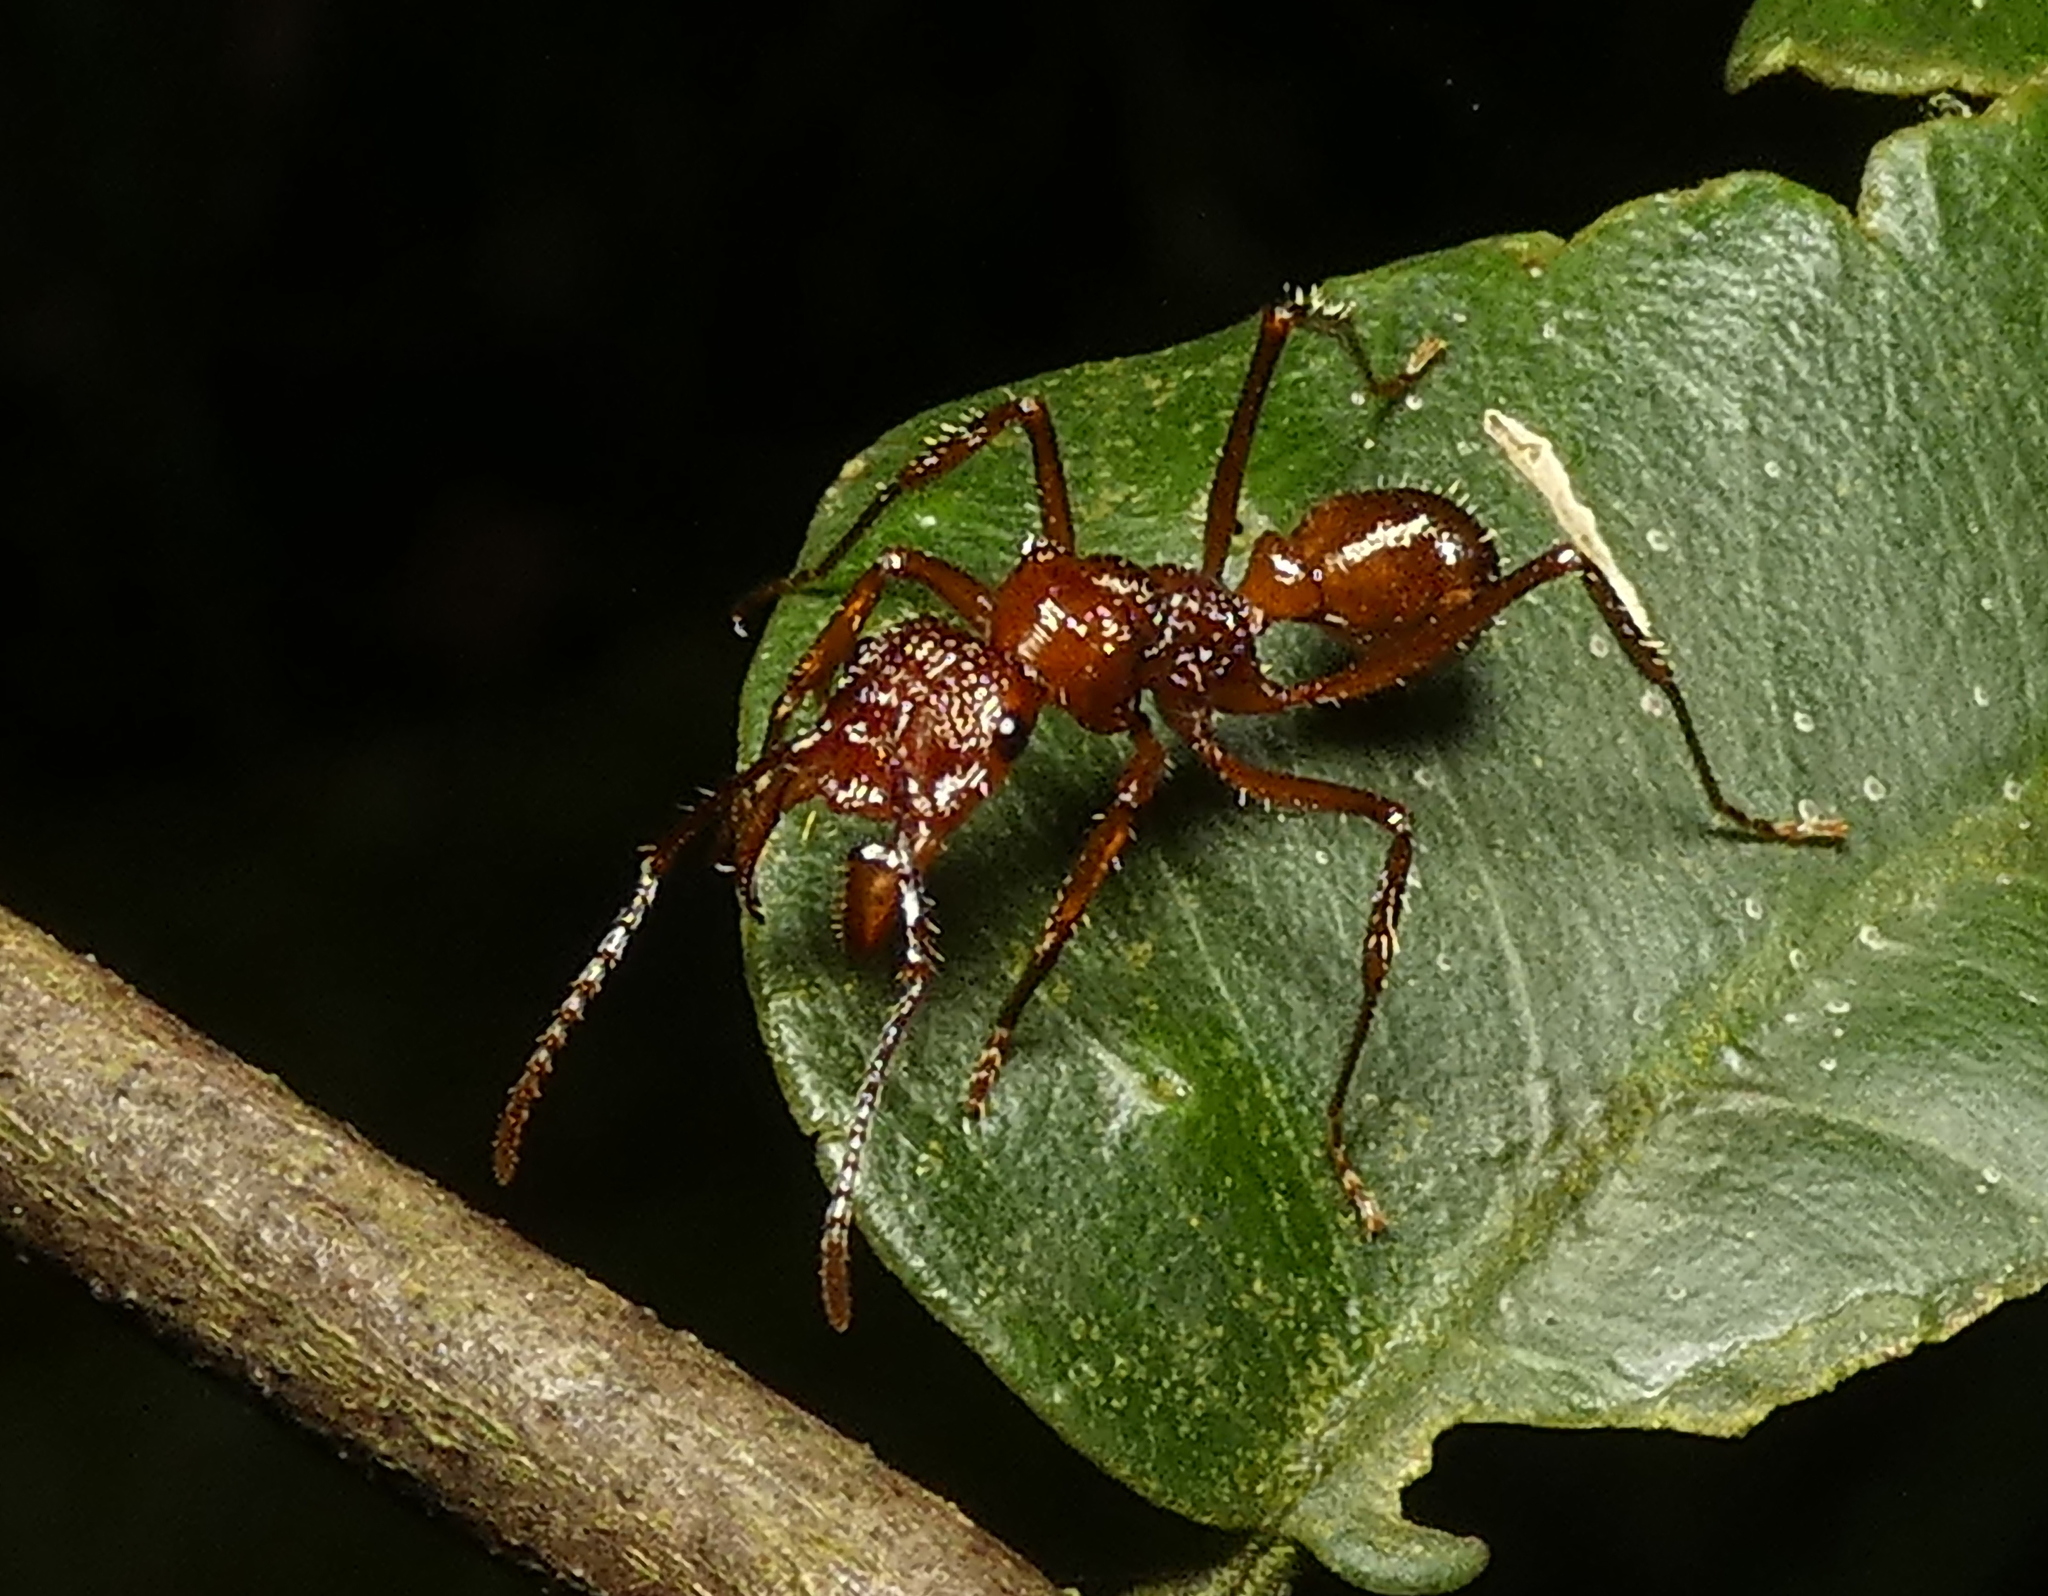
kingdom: Animalia
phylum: Arthropoda
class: Insecta
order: Hymenoptera
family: Formicidae
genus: Ectatomma
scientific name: Ectatomma tuberculatum
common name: Ant
